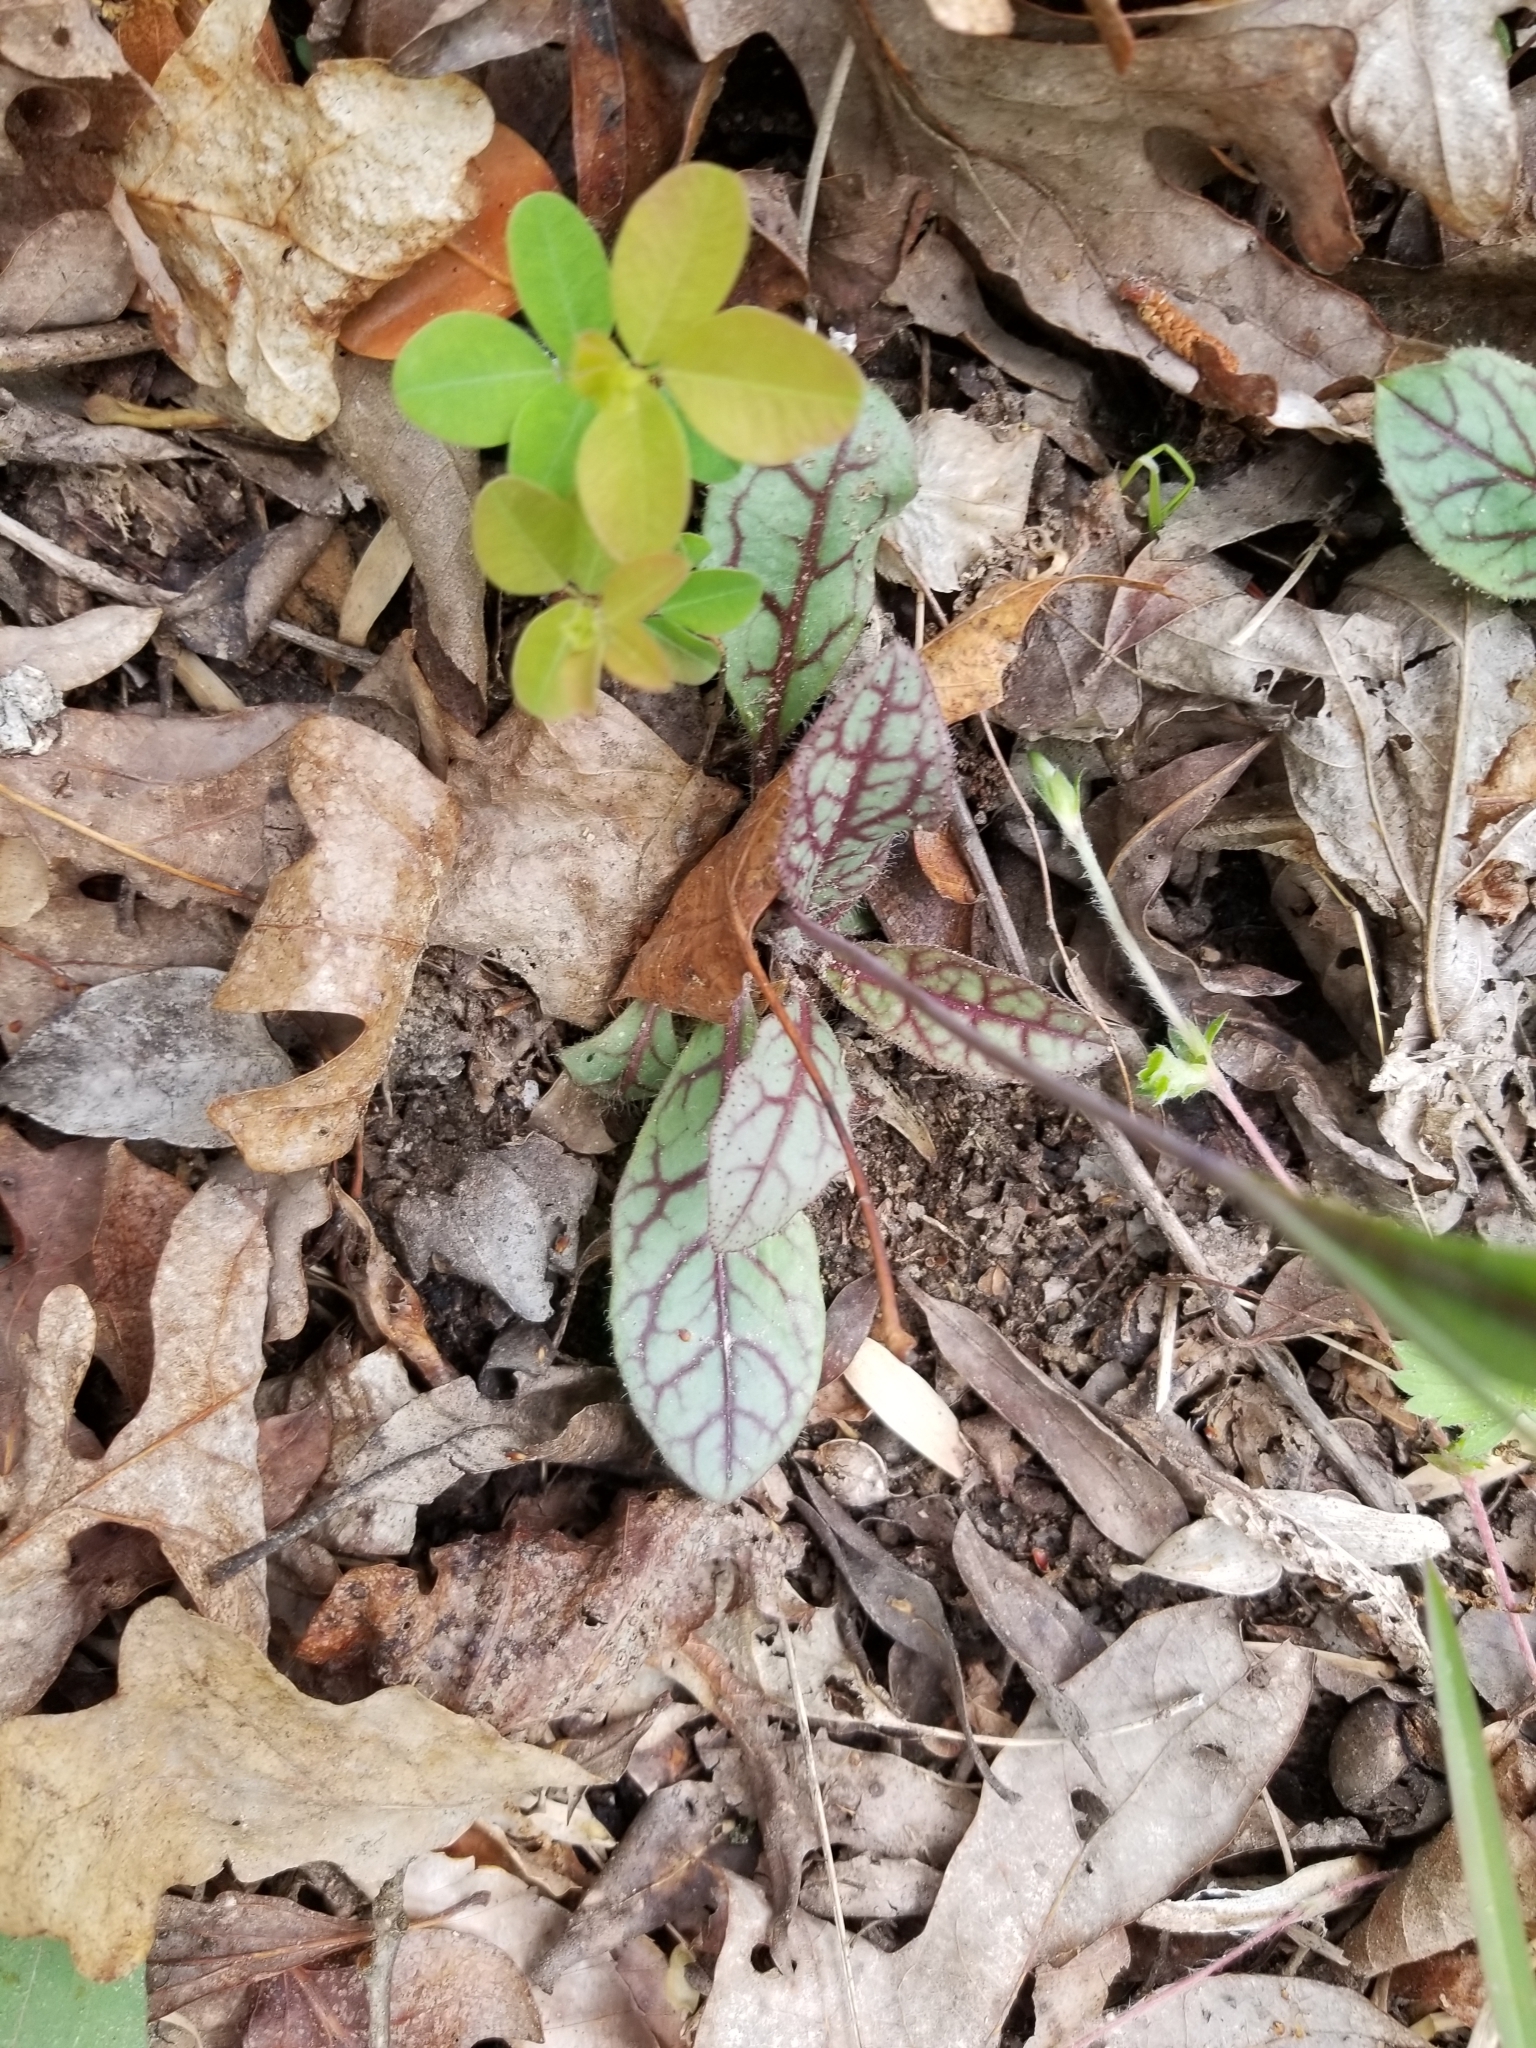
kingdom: Plantae
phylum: Tracheophyta
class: Magnoliopsida
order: Asterales
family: Asteraceae
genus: Hieracium
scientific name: Hieracium venosum
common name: Rattlesnake hawkweed
